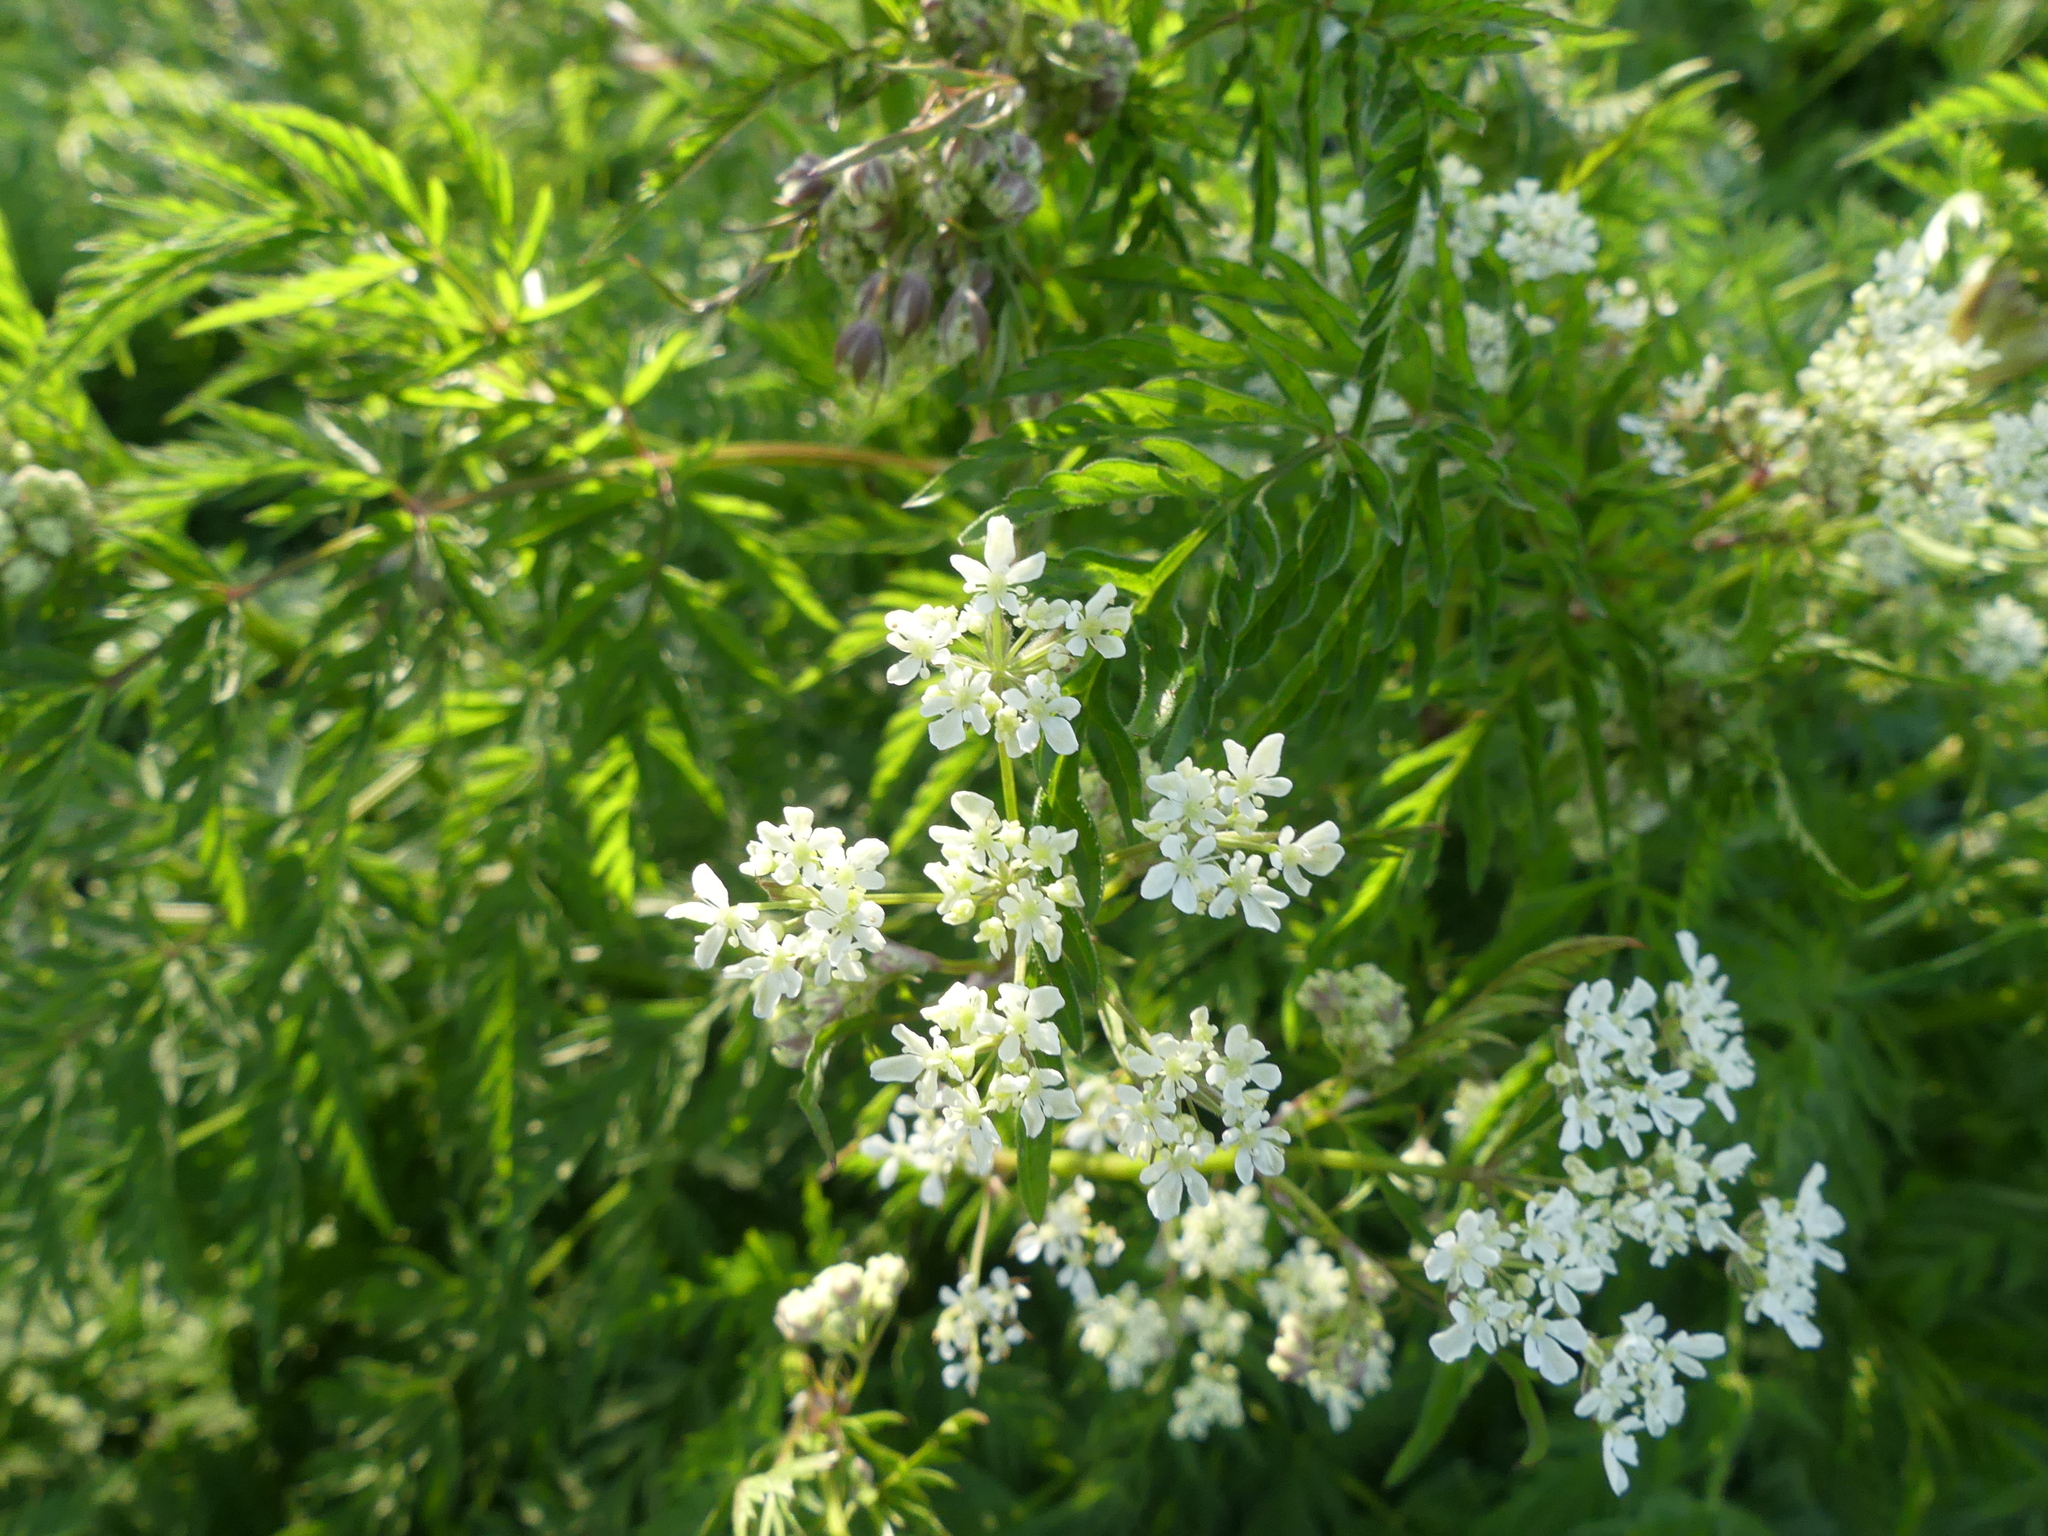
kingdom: Plantae
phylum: Tracheophyta
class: Magnoliopsida
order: Apiales
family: Apiaceae
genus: Anthriscus
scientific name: Anthriscus sylvestris
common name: Cow parsley
